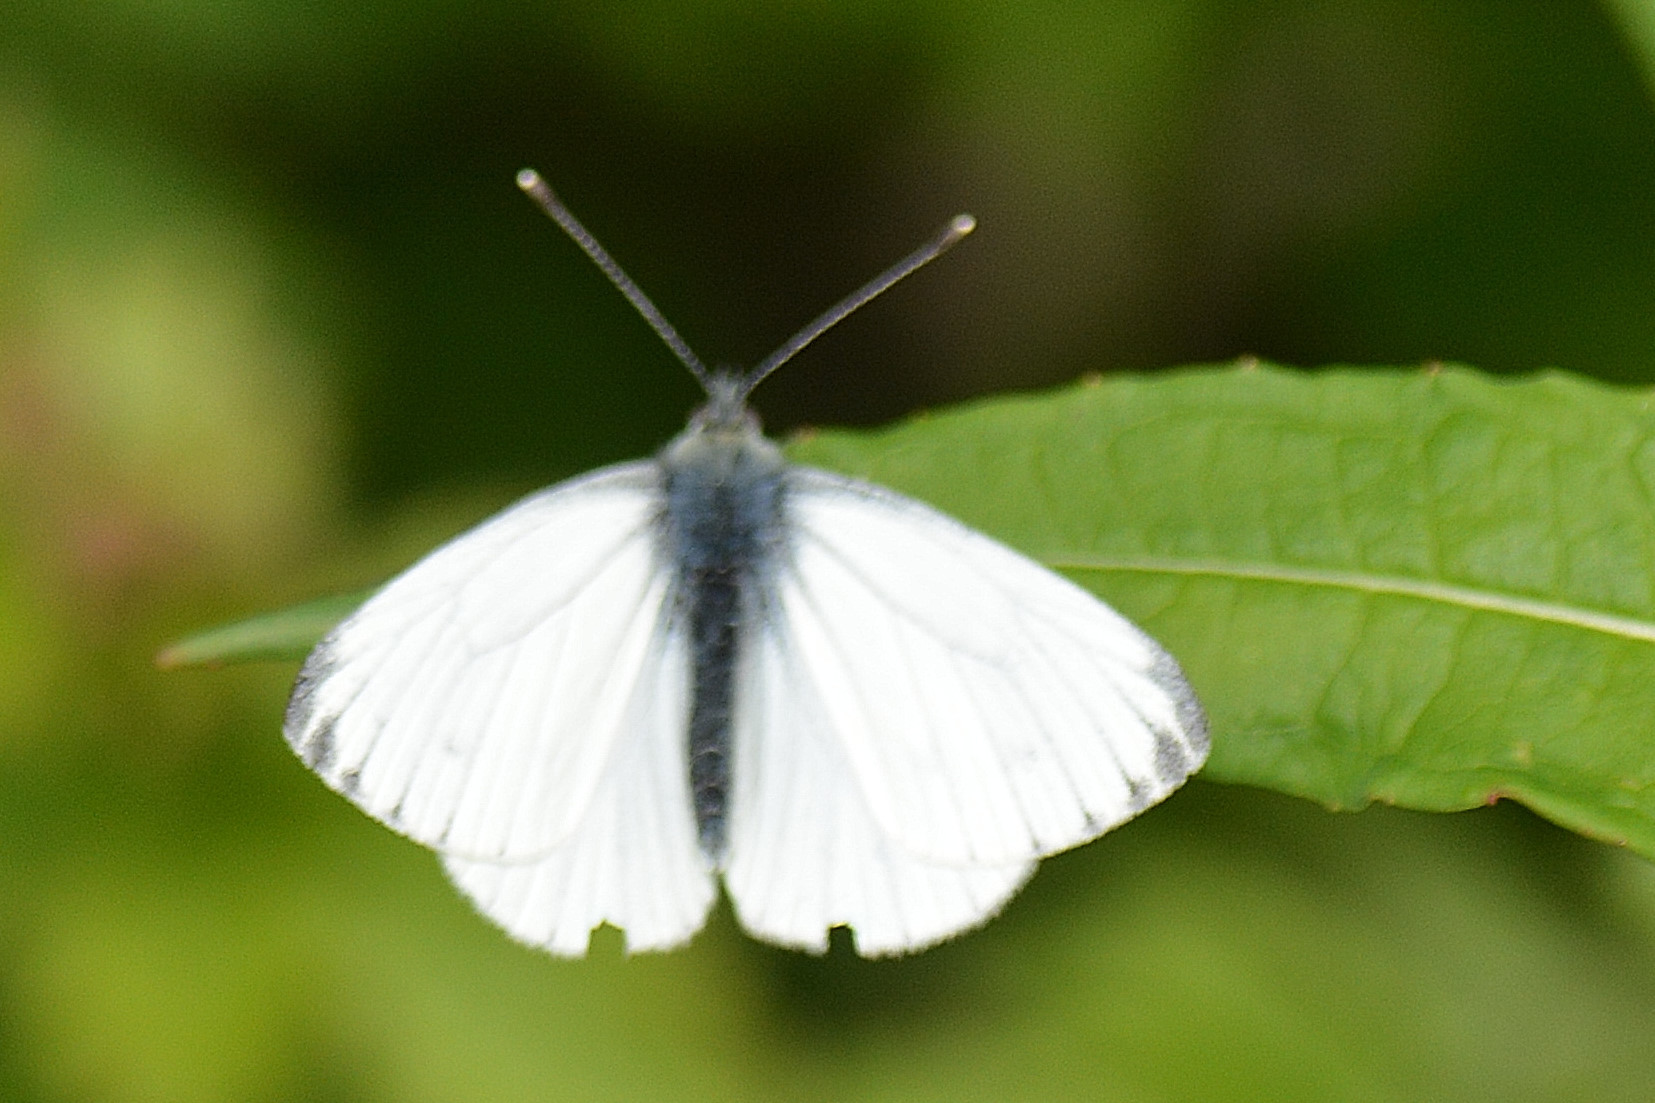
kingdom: Animalia
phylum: Arthropoda
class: Insecta
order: Lepidoptera
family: Pieridae
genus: Pieris
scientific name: Pieris napi
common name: Green-veined white
